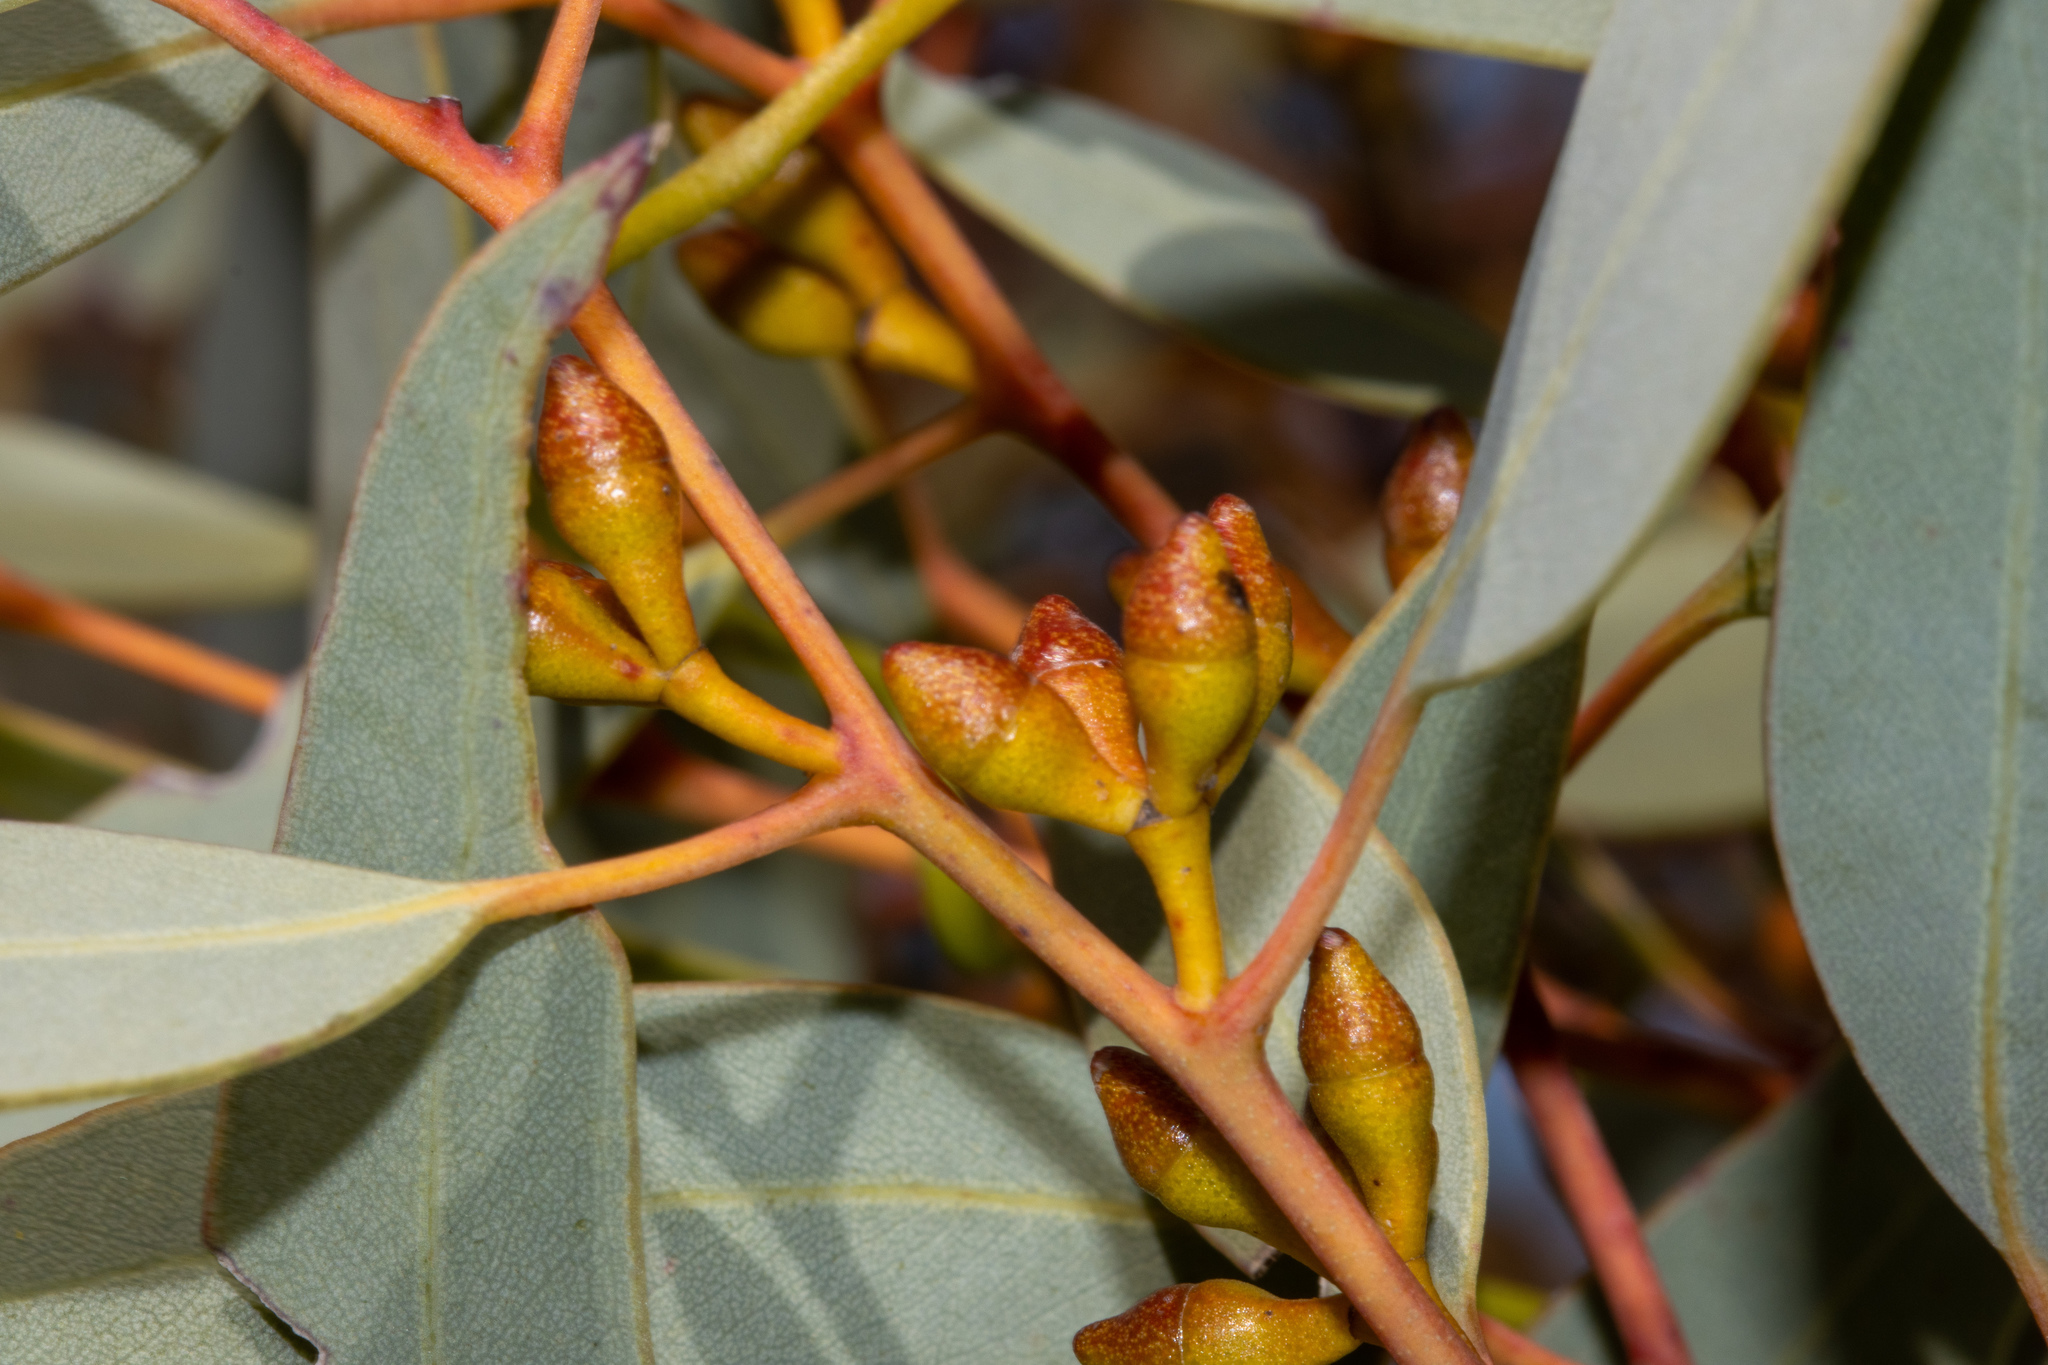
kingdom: Plantae
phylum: Tracheophyta
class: Magnoliopsida
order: Myrtales
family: Myrtaceae
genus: Eucalyptus
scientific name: Eucalyptus yalatensis
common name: Yalata mallee
